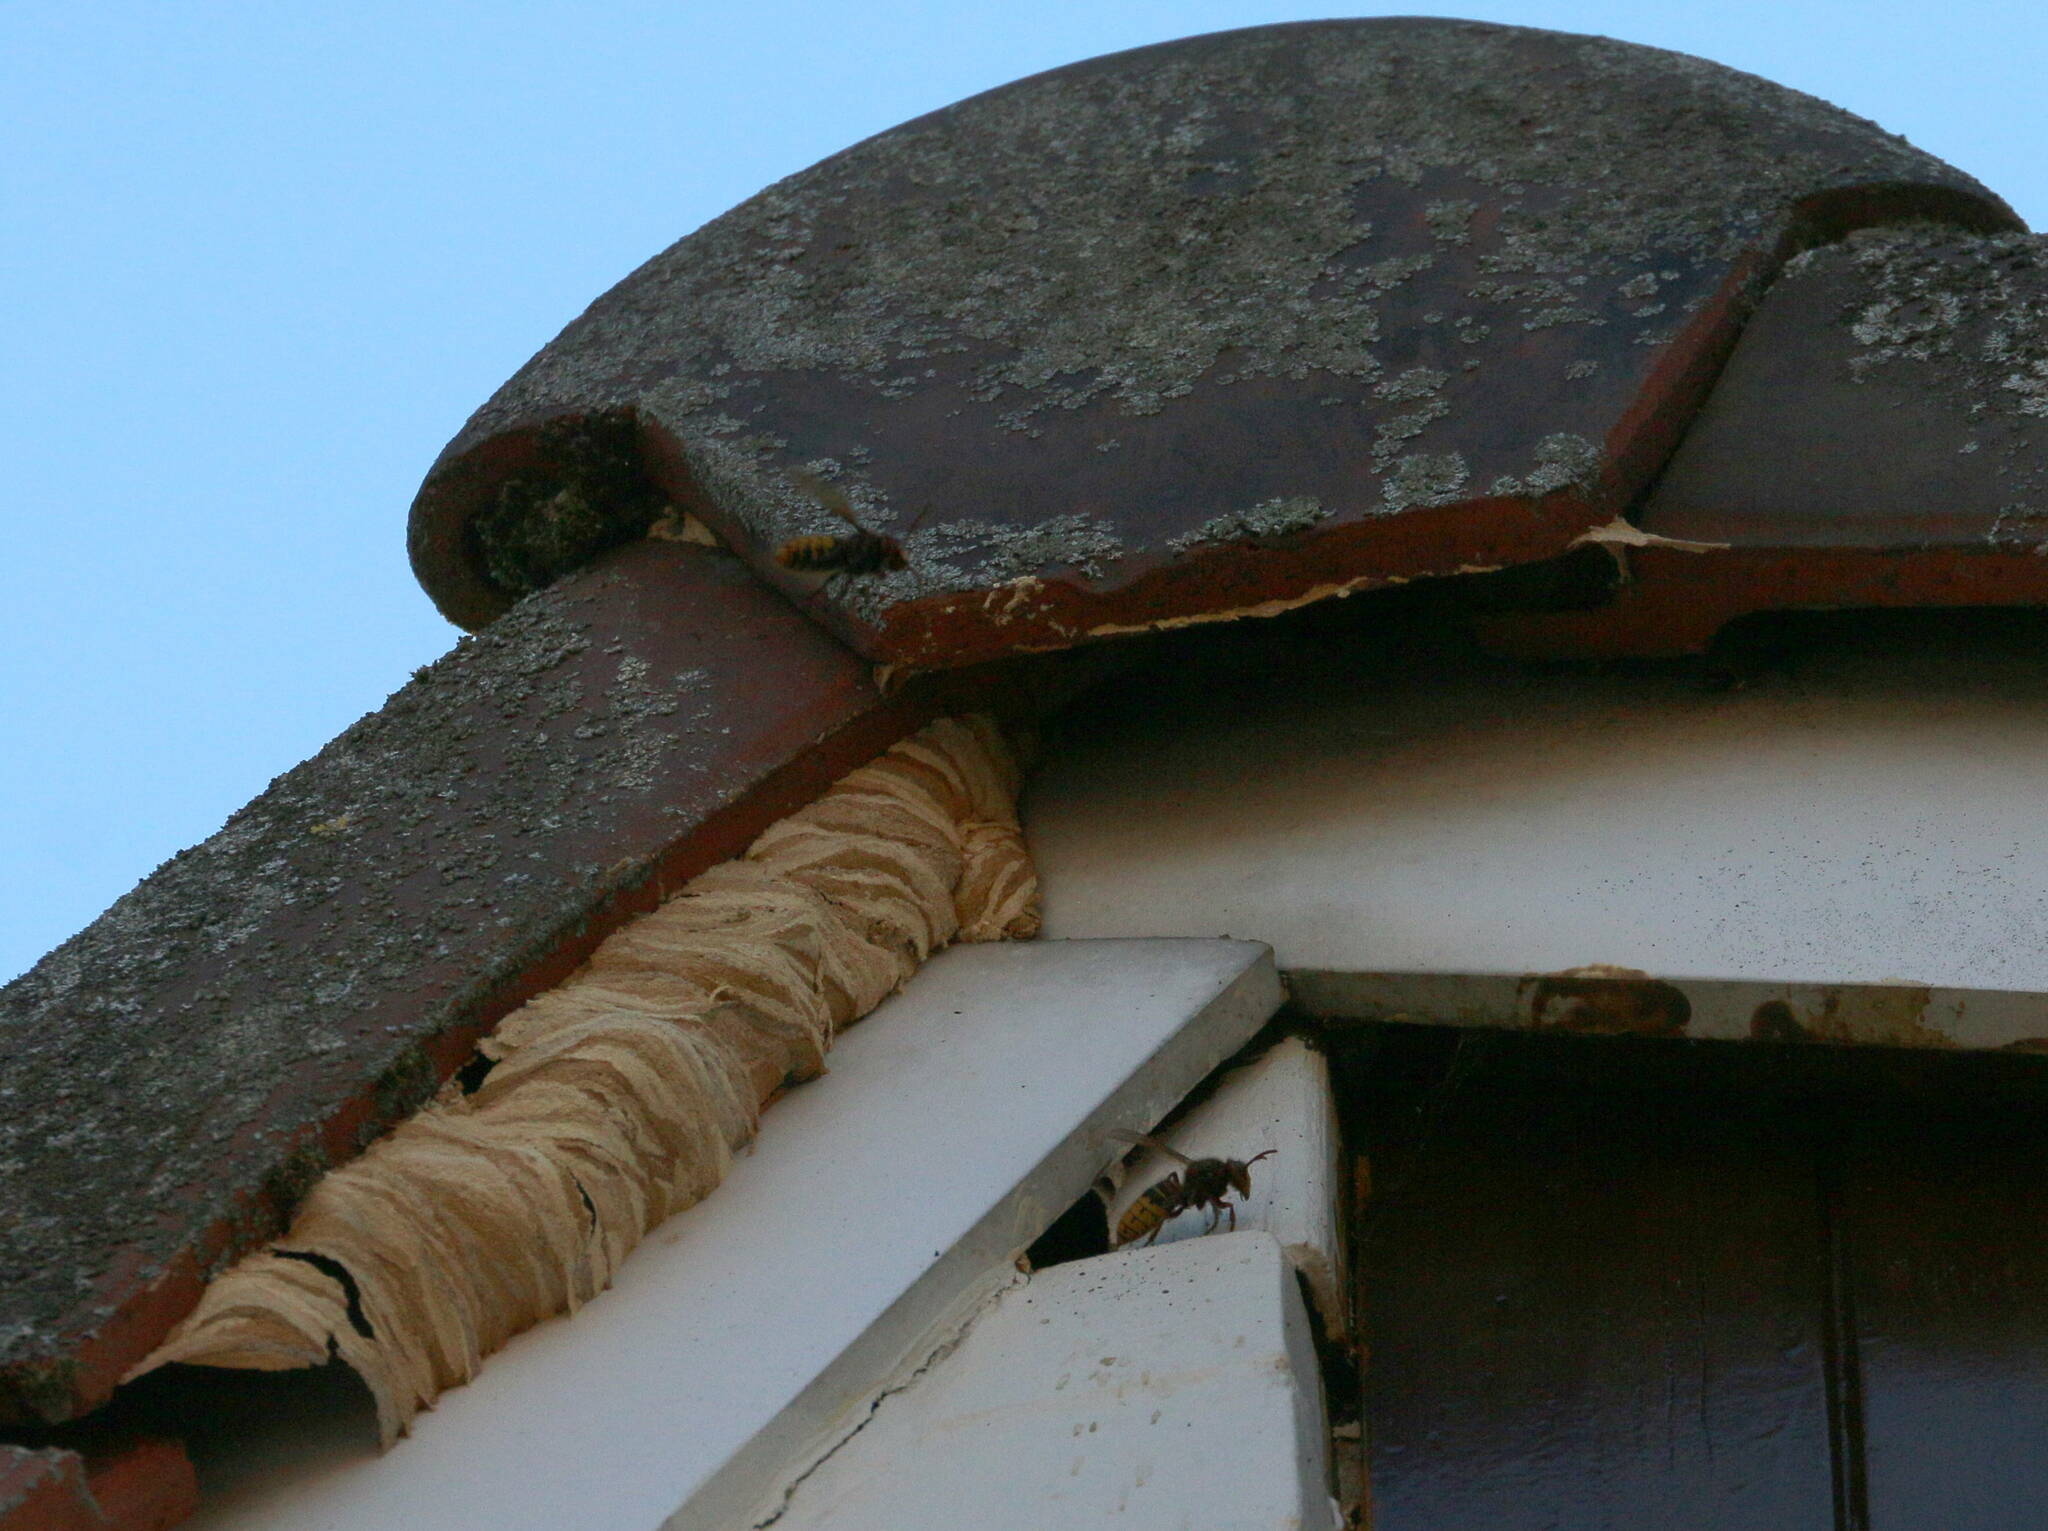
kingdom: Animalia
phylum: Arthropoda
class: Insecta
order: Hymenoptera
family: Vespidae
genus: Vespa
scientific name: Vespa crabro
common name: Hornet
